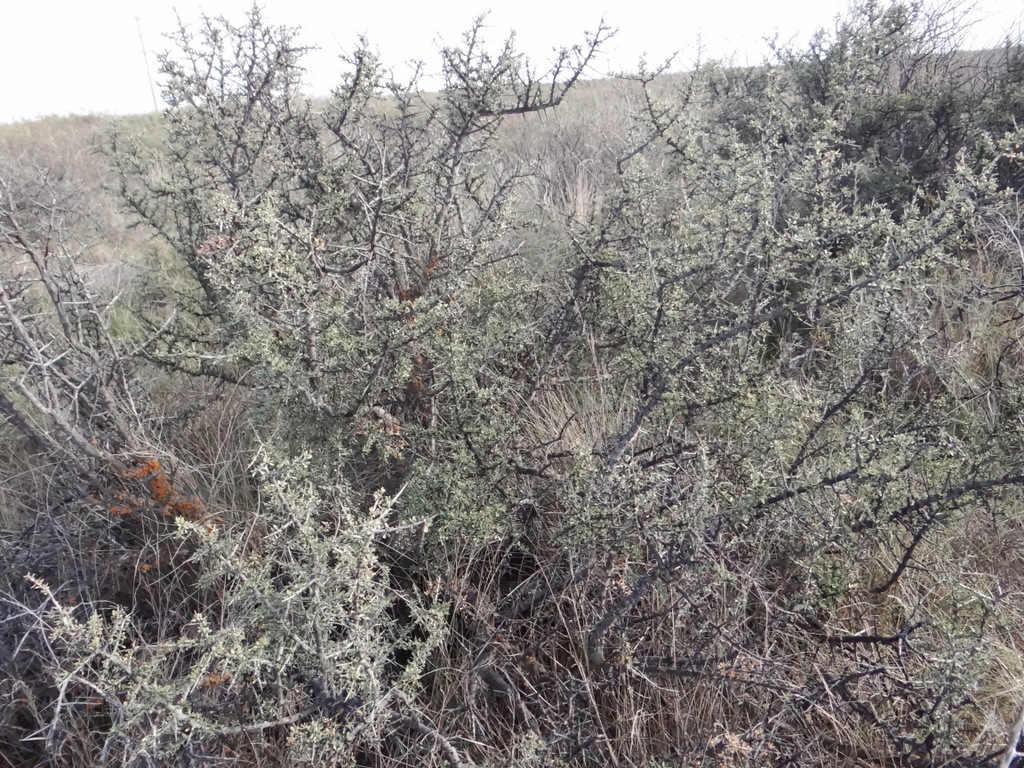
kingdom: Plantae
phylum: Tracheophyta
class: Magnoliopsida
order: Rosales
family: Rhamnaceae
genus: Condalia
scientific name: Condalia microphylla
